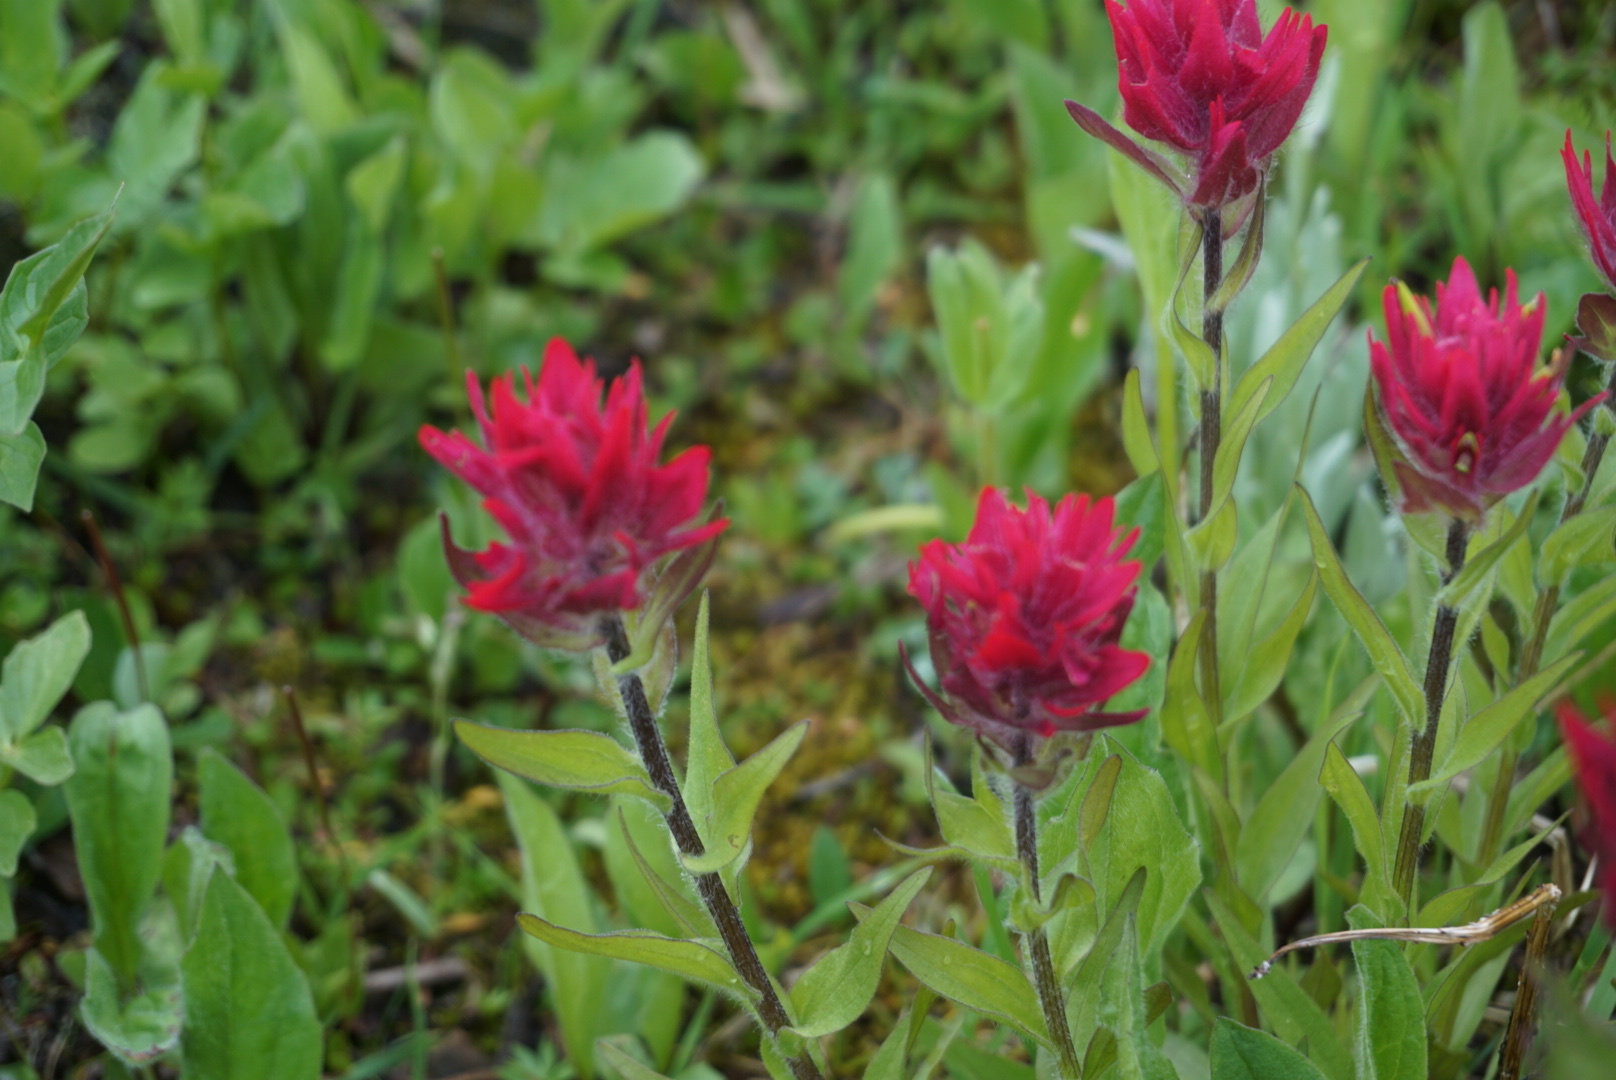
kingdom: Plantae
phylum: Tracheophyta
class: Magnoliopsida
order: Lamiales
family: Orobanchaceae
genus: Castilleja
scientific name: Castilleja rhexifolia
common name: Rocky mountain paintbrush
